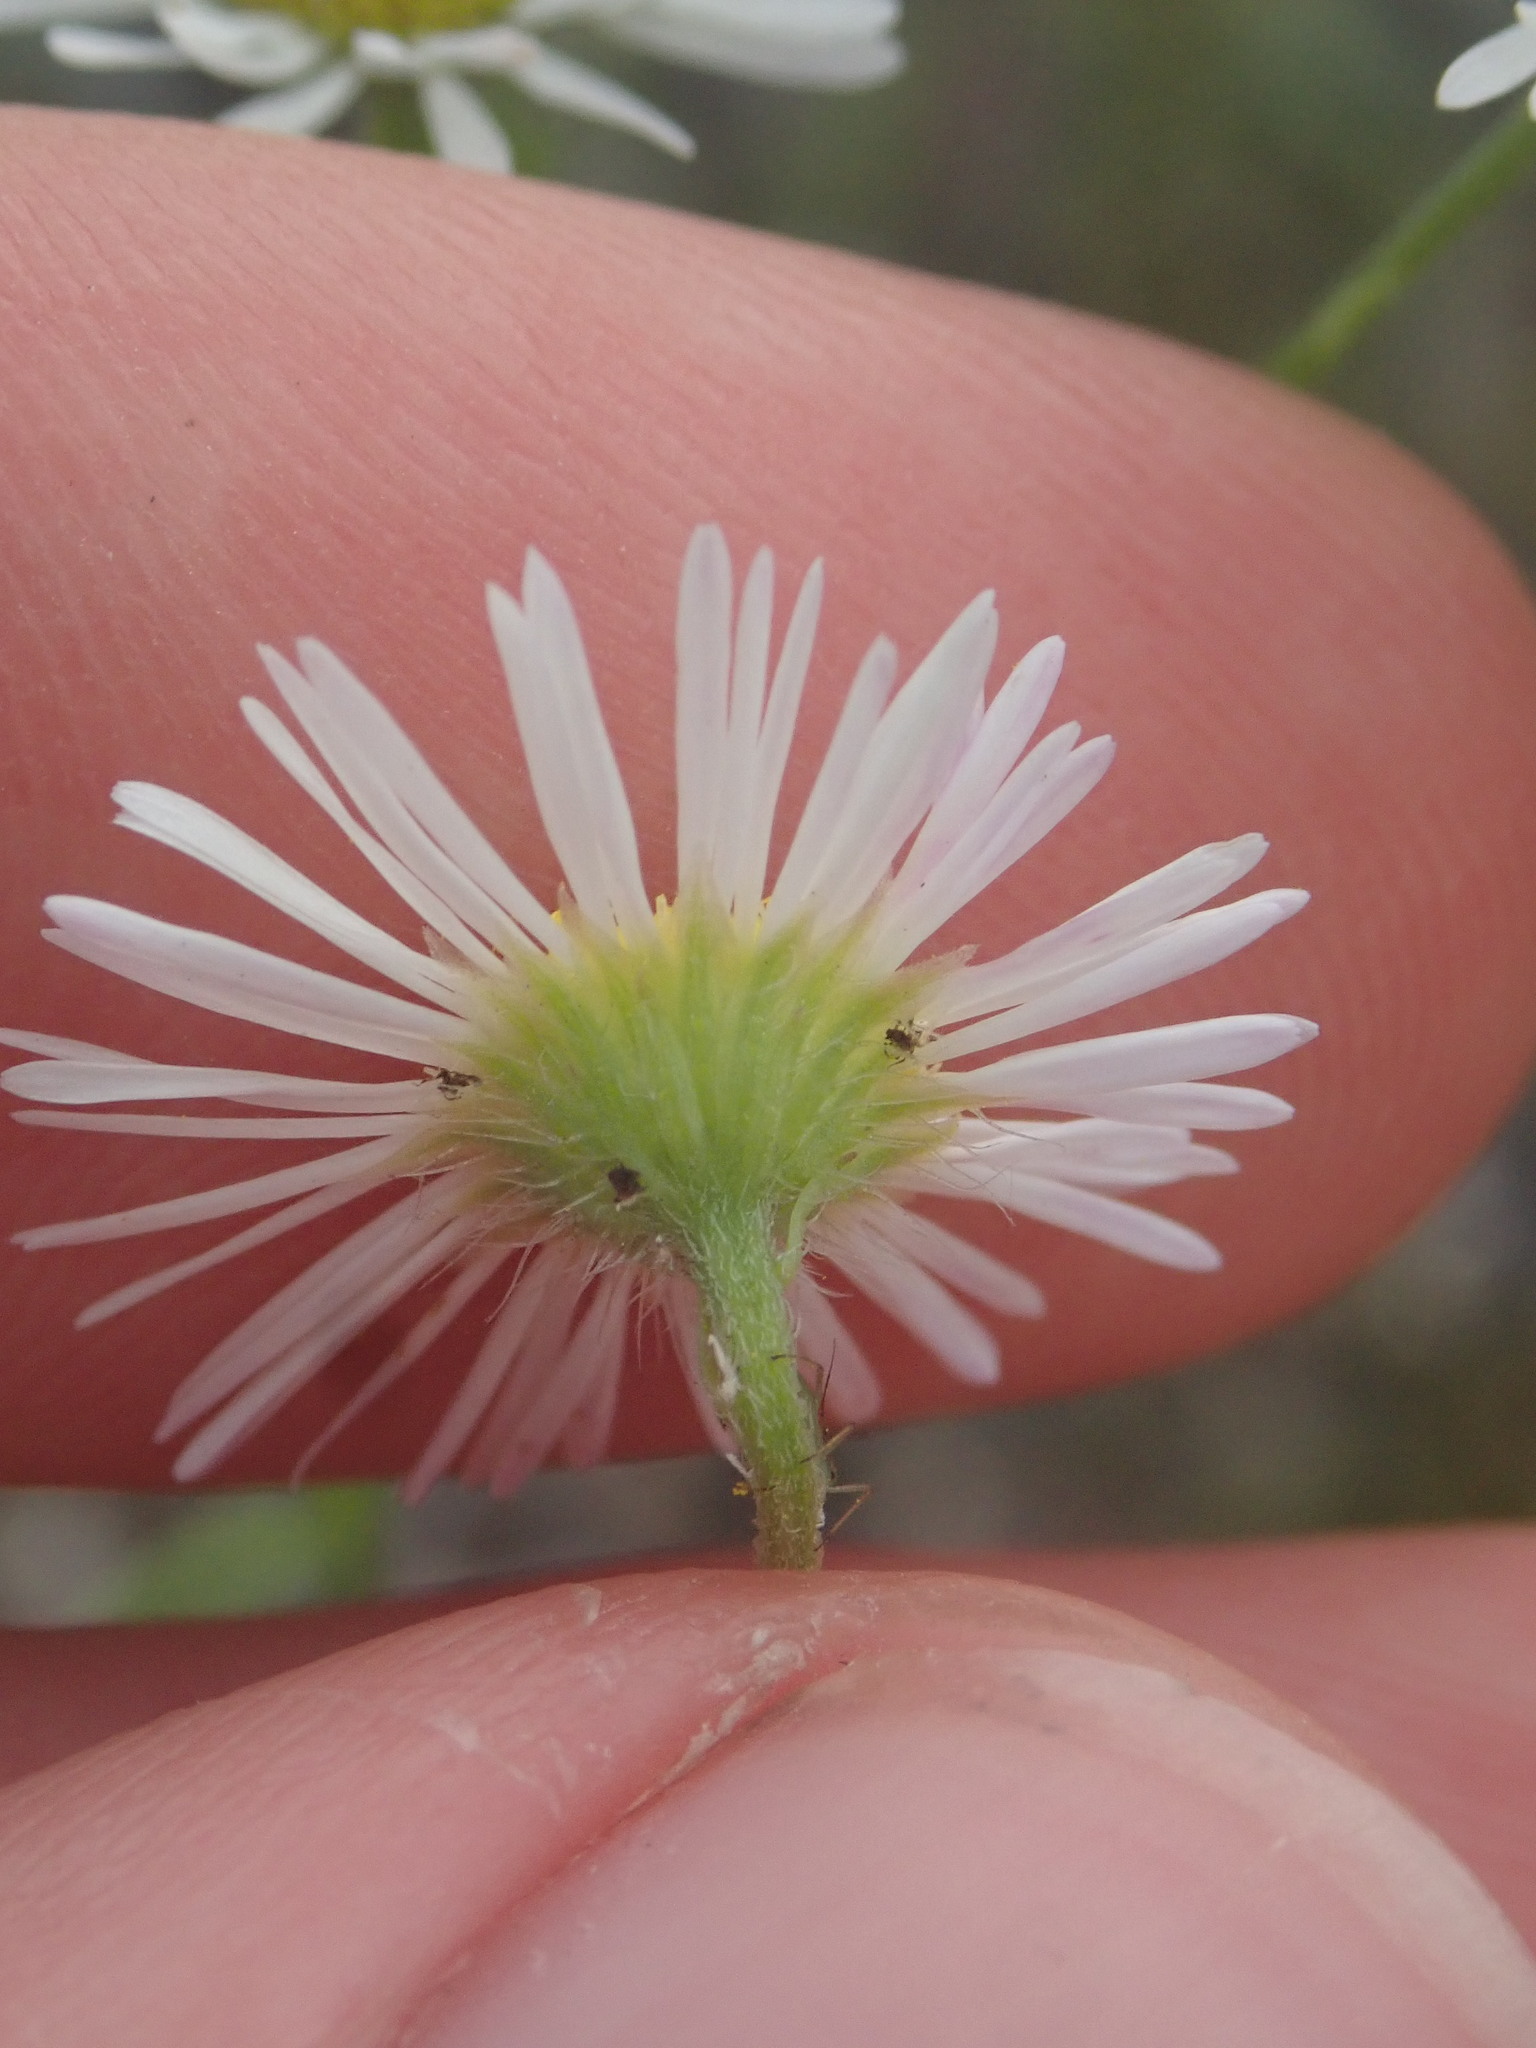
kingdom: Plantae
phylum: Tracheophyta
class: Magnoliopsida
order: Asterales
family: Asteraceae
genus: Erigeron
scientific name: Erigeron annuus
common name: Tall fleabane
